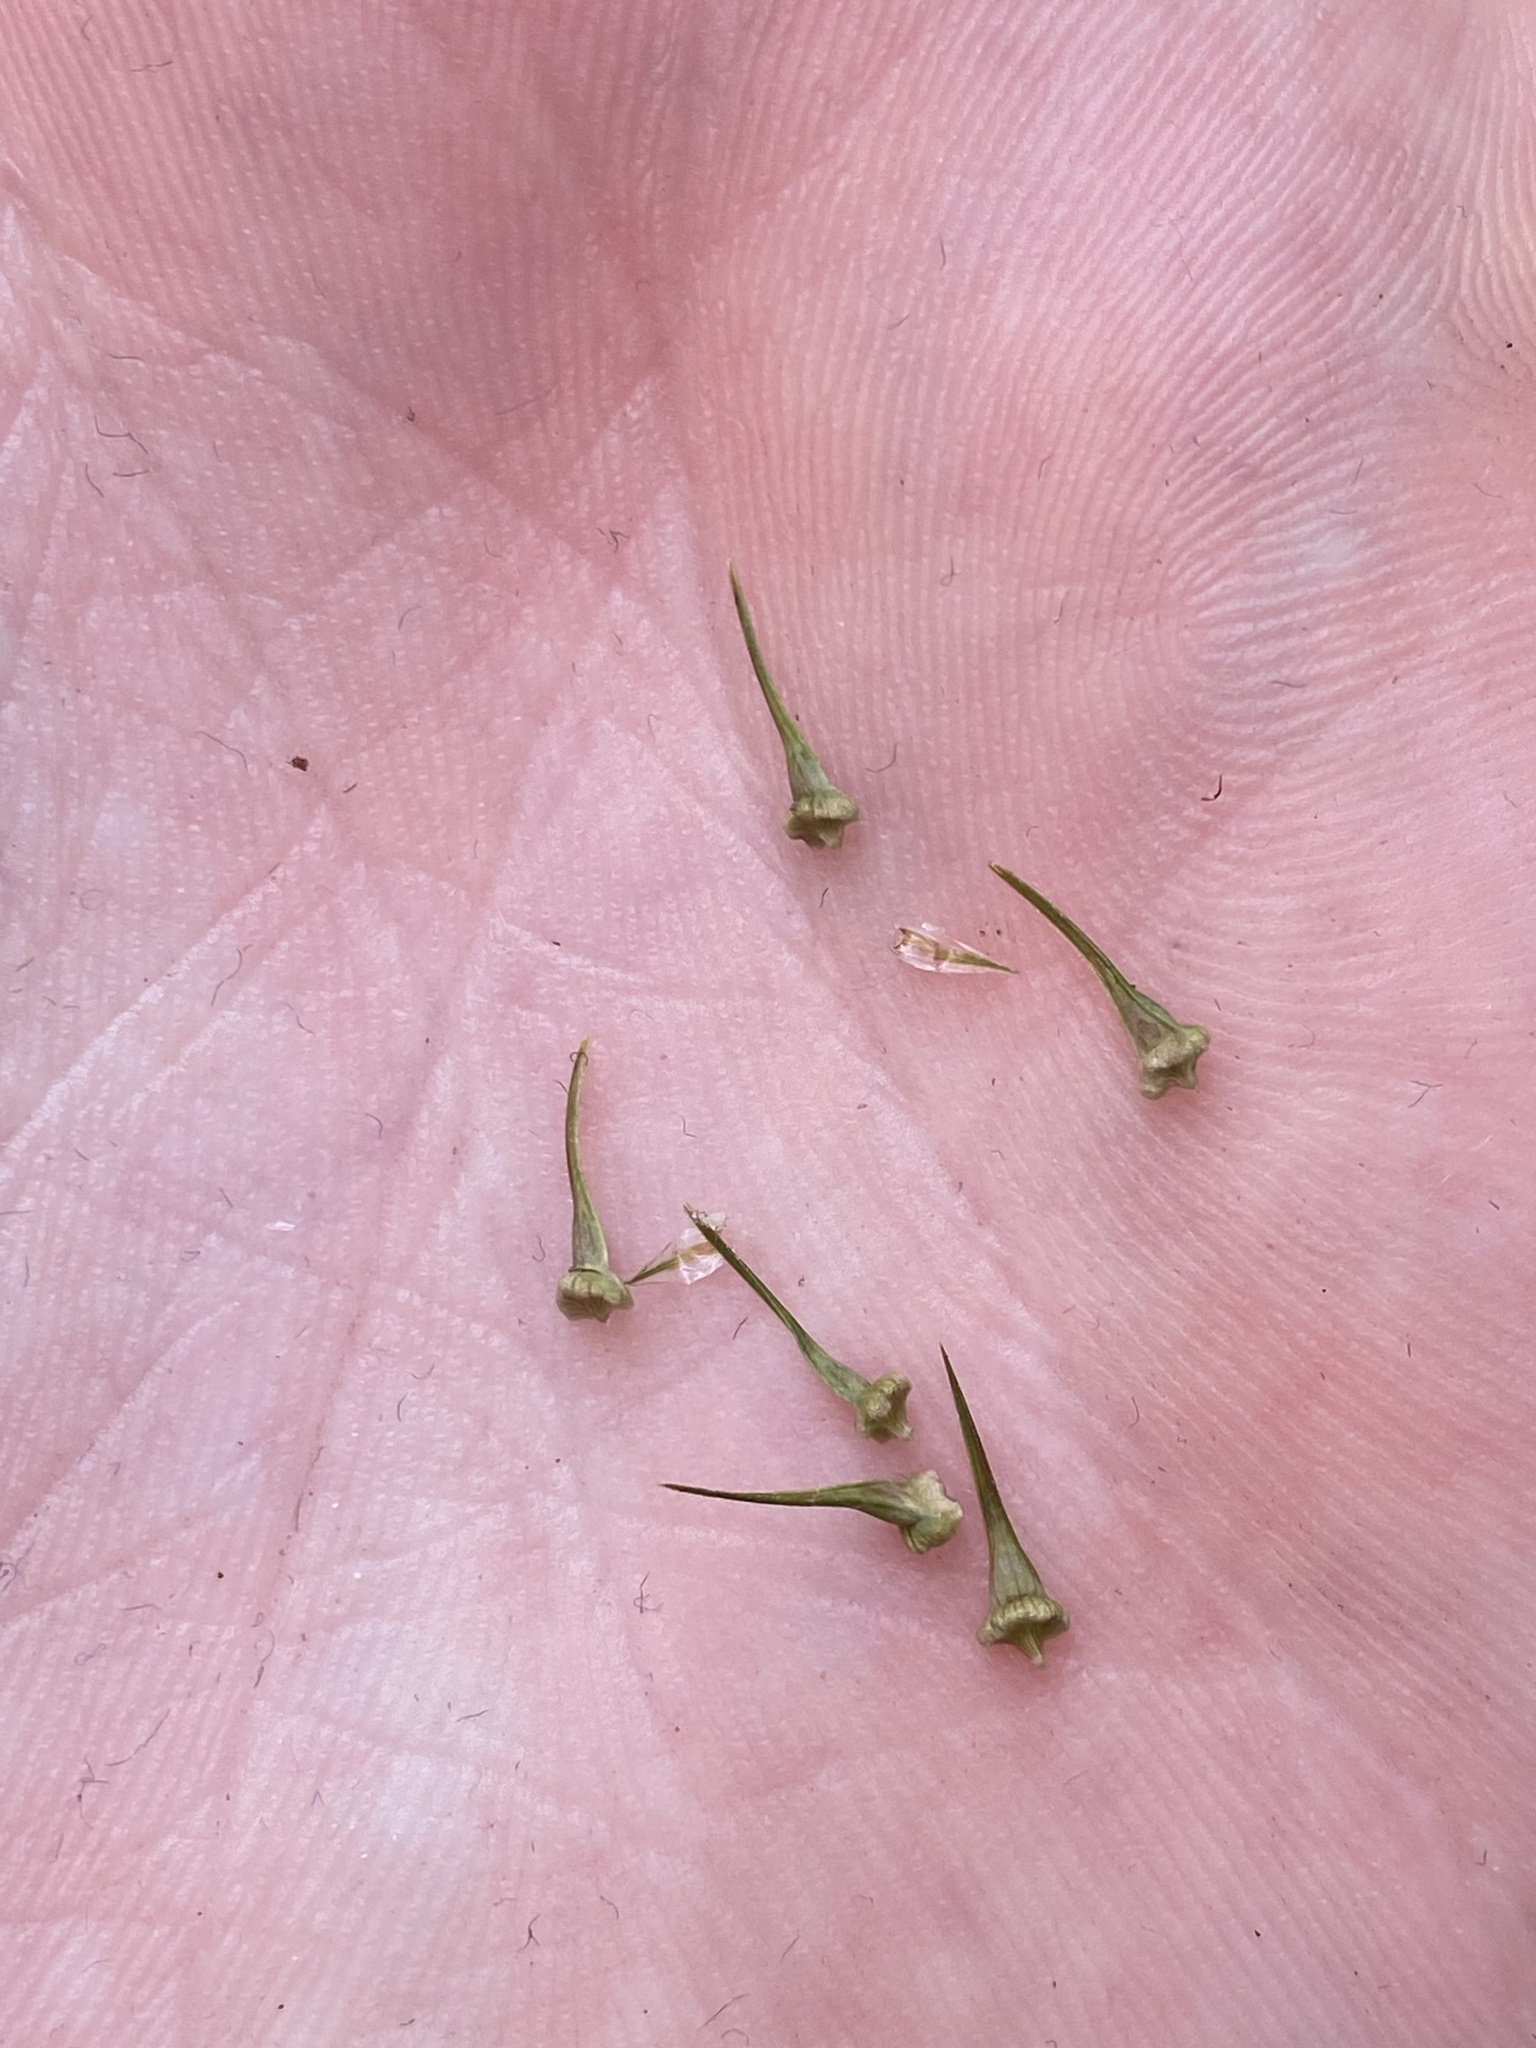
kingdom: Plantae
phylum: Tracheophyta
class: Liliopsida
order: Poales
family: Cyperaceae
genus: Carex
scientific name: Carex crus-corvi
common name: Crow-spur sedge
